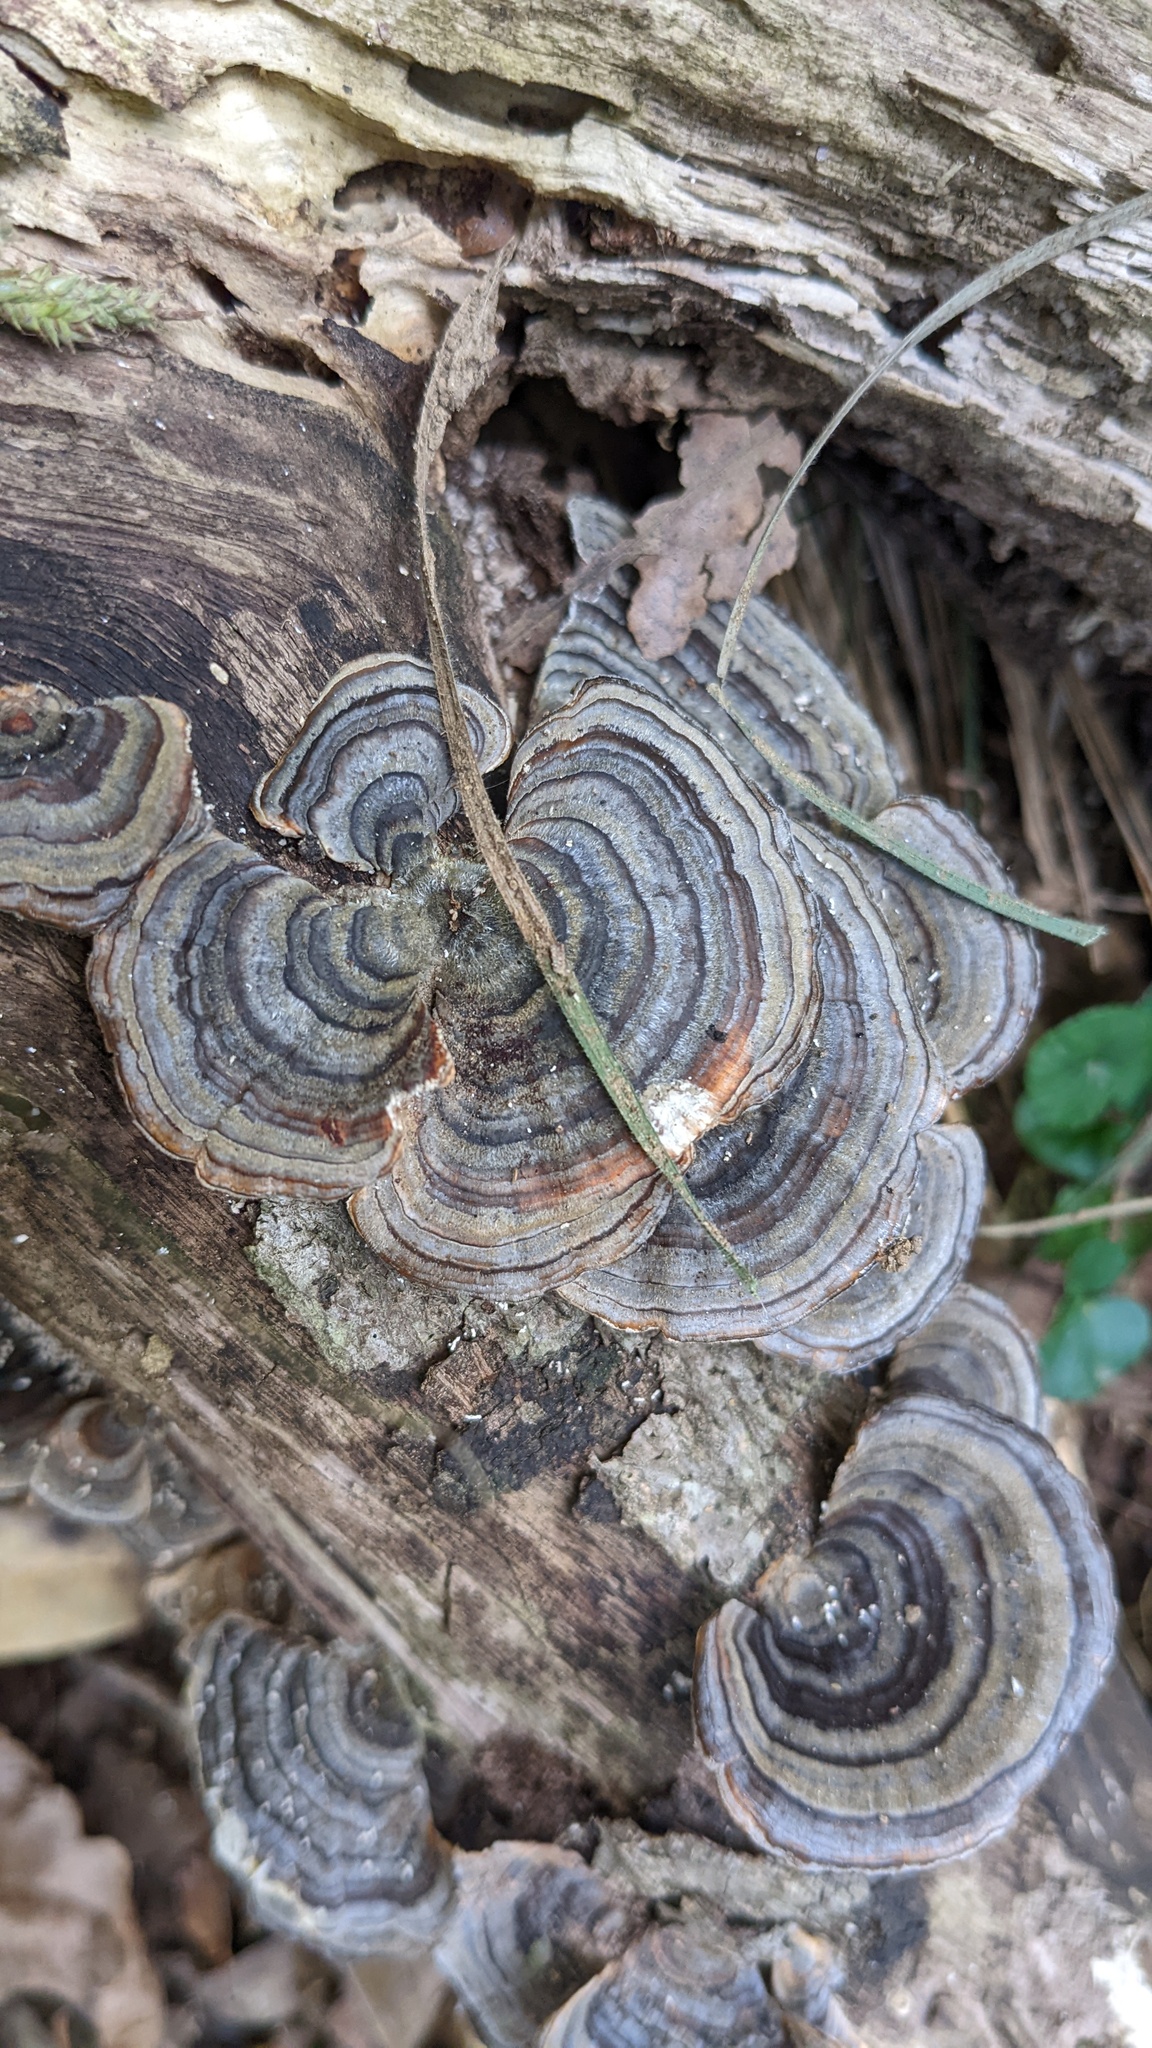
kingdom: Fungi
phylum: Basidiomycota
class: Agaricomycetes
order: Polyporales
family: Polyporaceae
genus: Trametes
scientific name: Trametes versicolor
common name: Turkeytail
